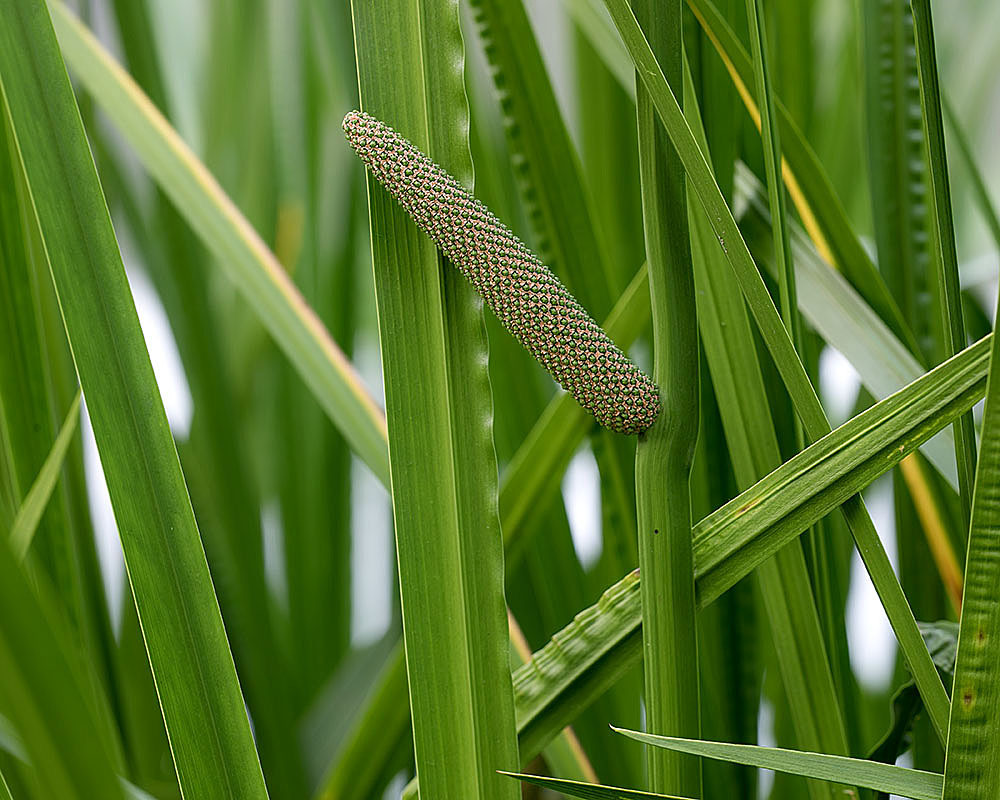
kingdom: Plantae
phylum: Tracheophyta
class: Liliopsida
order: Acorales
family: Acoraceae
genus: Acorus
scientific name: Acorus calamus
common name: Sweet-flag
